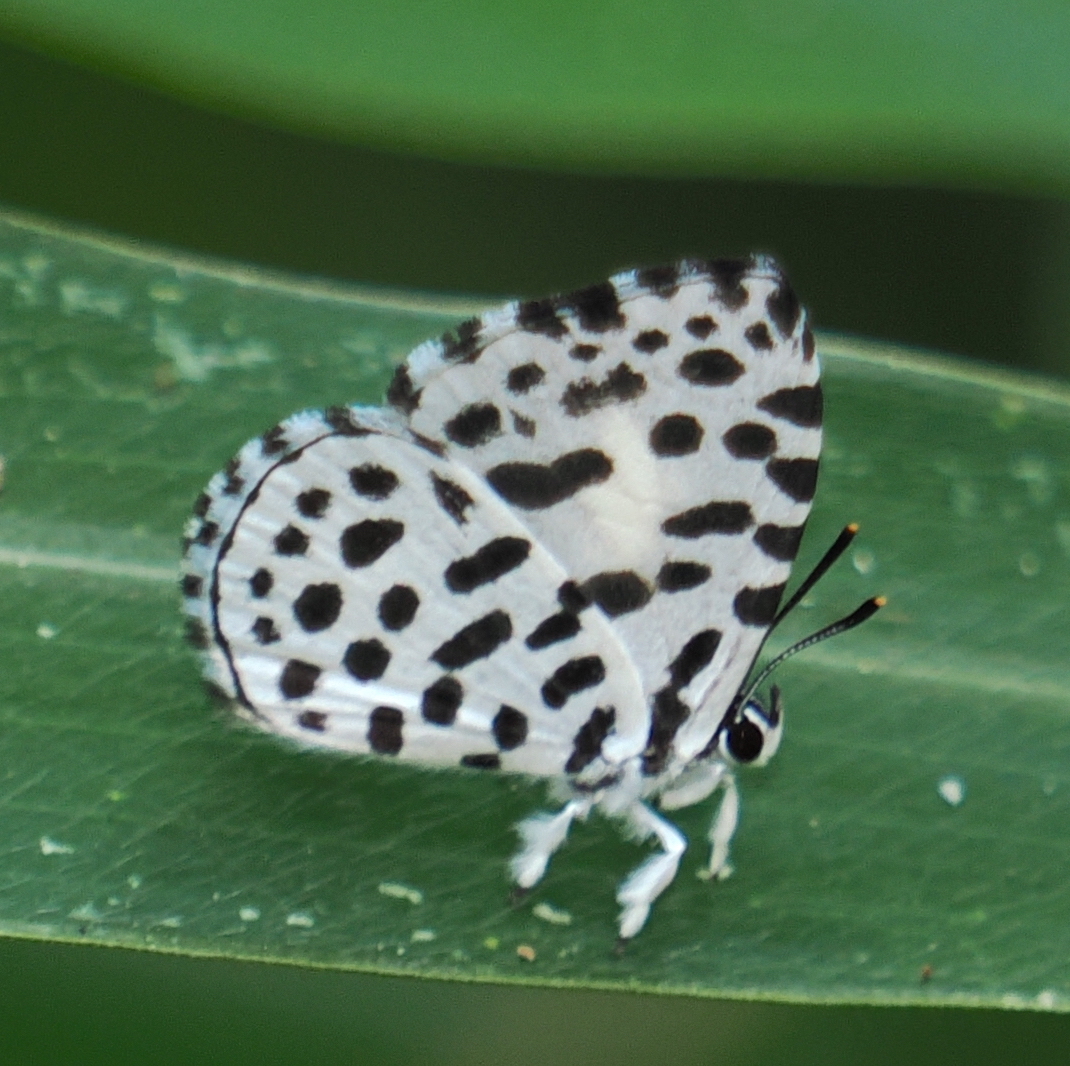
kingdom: Animalia
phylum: Arthropoda
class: Insecta
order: Lepidoptera
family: Lycaenidae
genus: Taraka
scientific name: Taraka hamada
